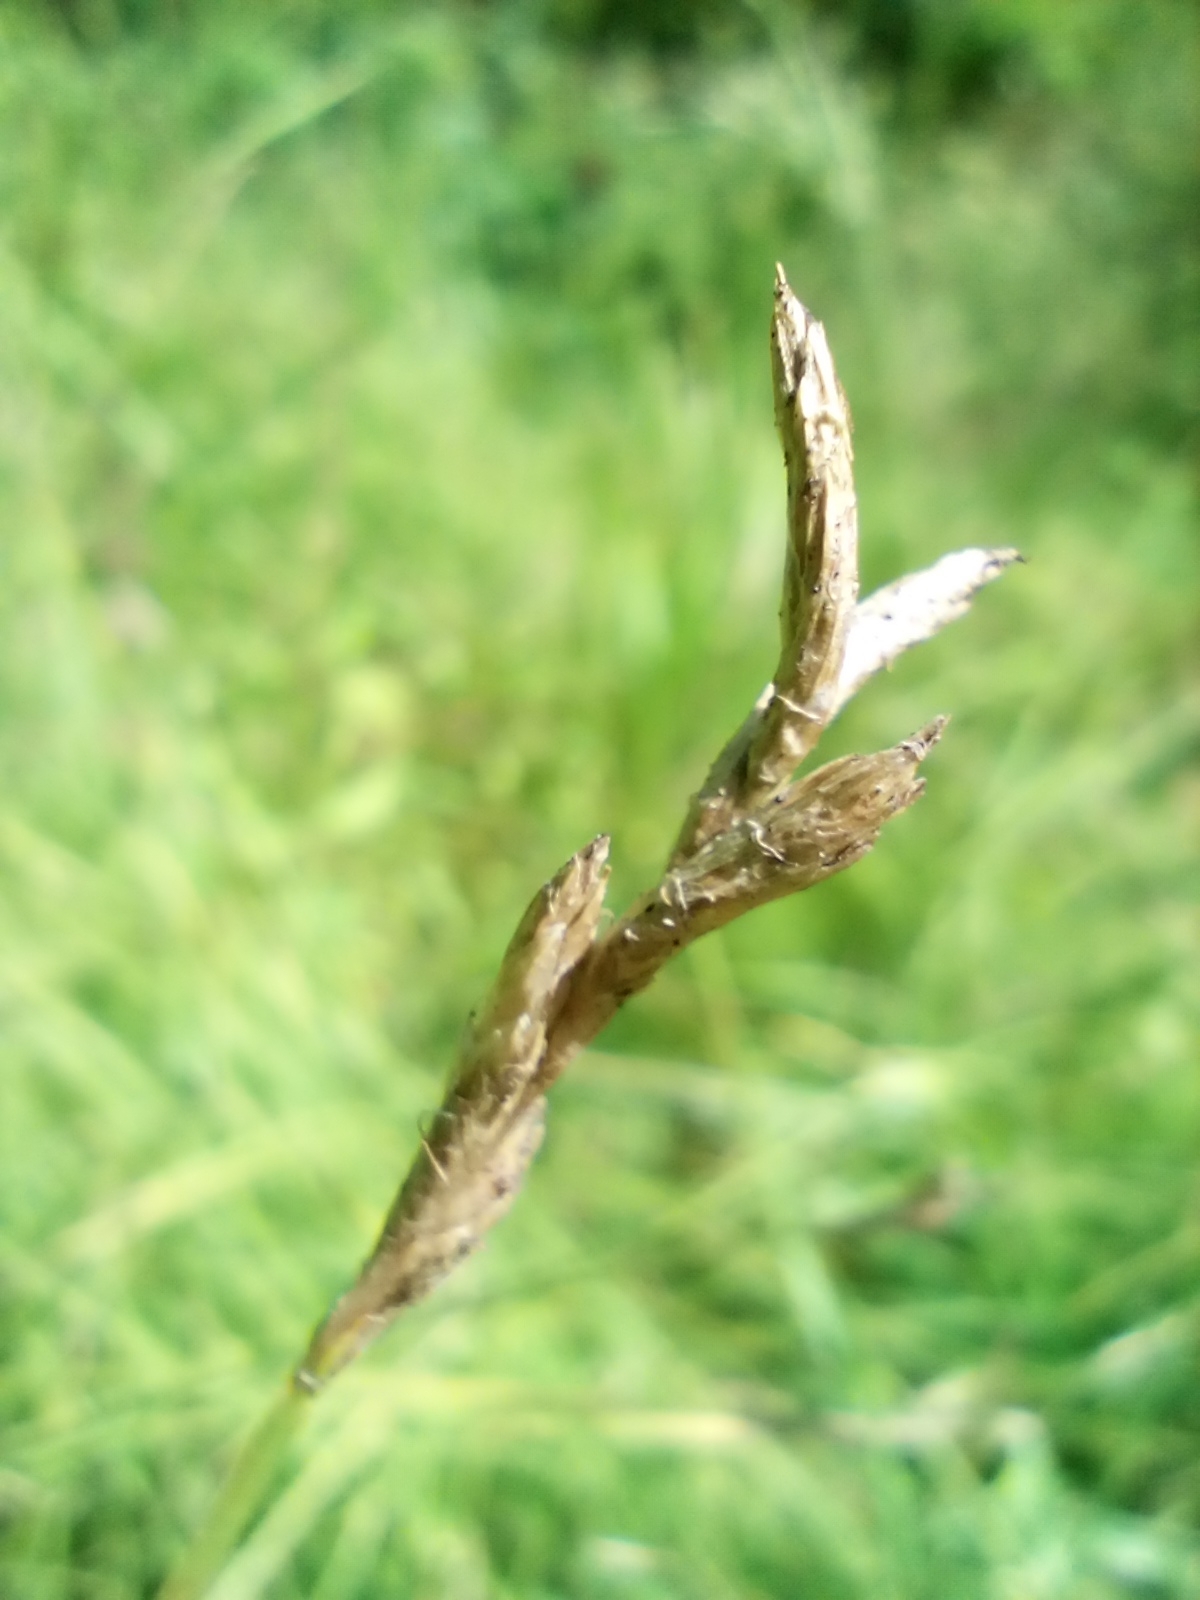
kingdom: Plantae
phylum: Tracheophyta
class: Liliopsida
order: Poales
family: Cyperaceae
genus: Carex
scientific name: Carex brizoides
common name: Quaking-grass sedge
